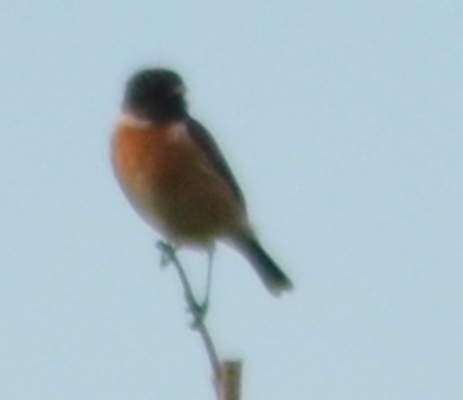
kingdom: Animalia
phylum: Chordata
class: Aves
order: Passeriformes
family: Muscicapidae
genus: Saxicola
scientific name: Saxicola rubicola
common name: European stonechat
